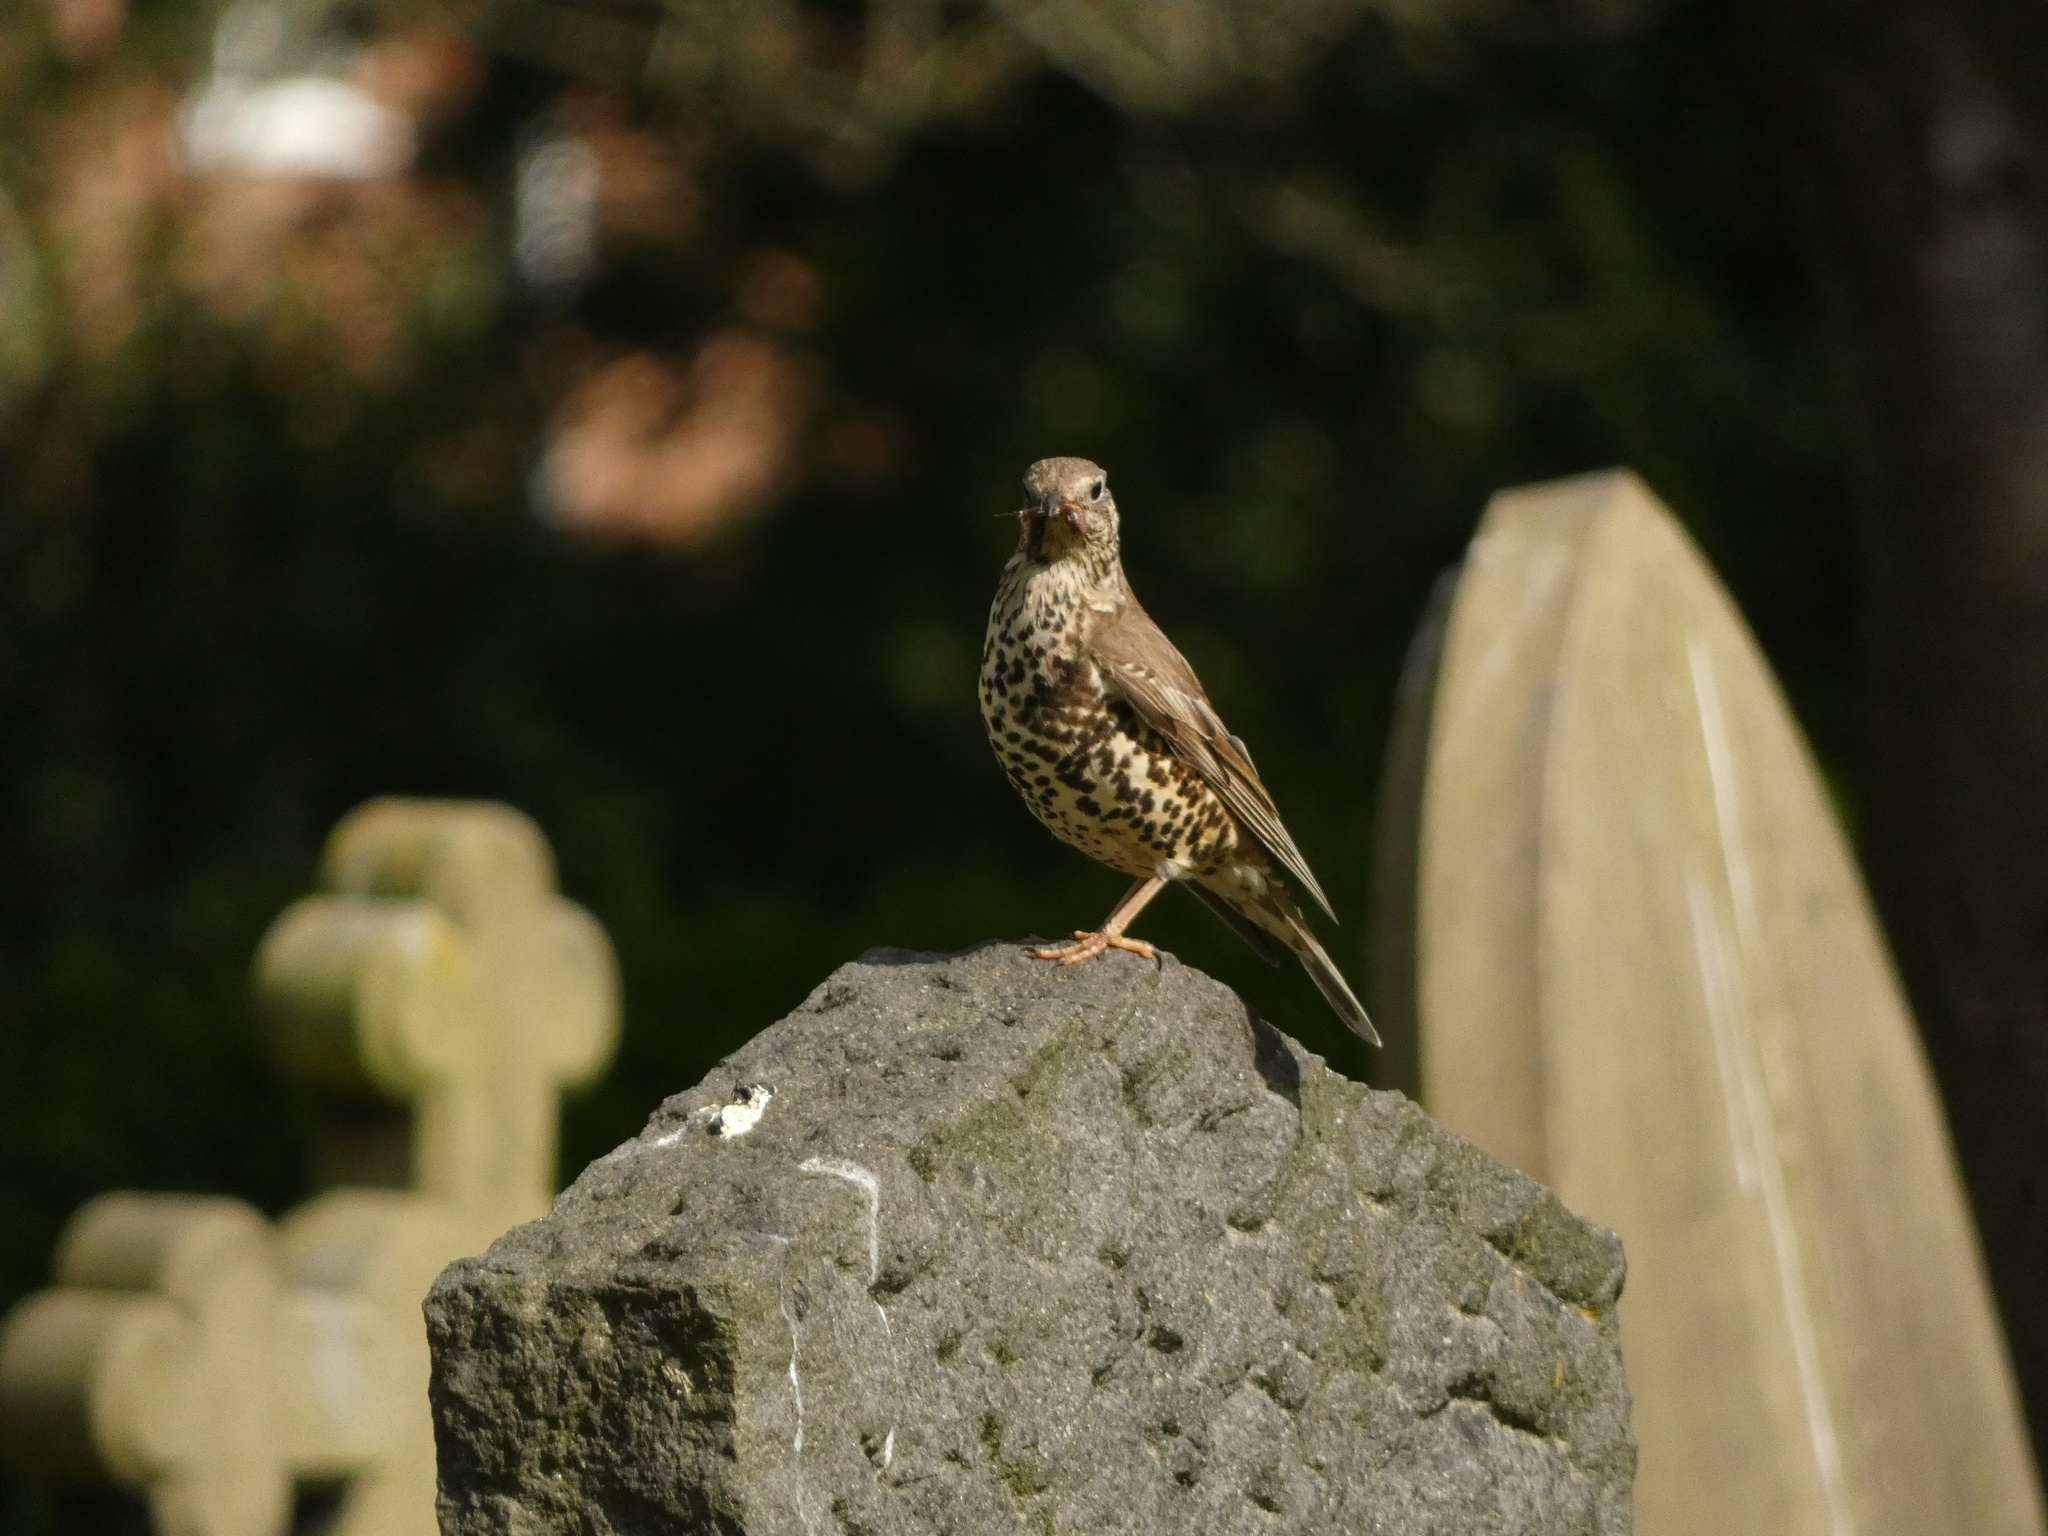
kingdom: Animalia
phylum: Chordata
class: Aves
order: Passeriformes
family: Turdidae
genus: Turdus
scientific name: Turdus viscivorus
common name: Mistle thrush
